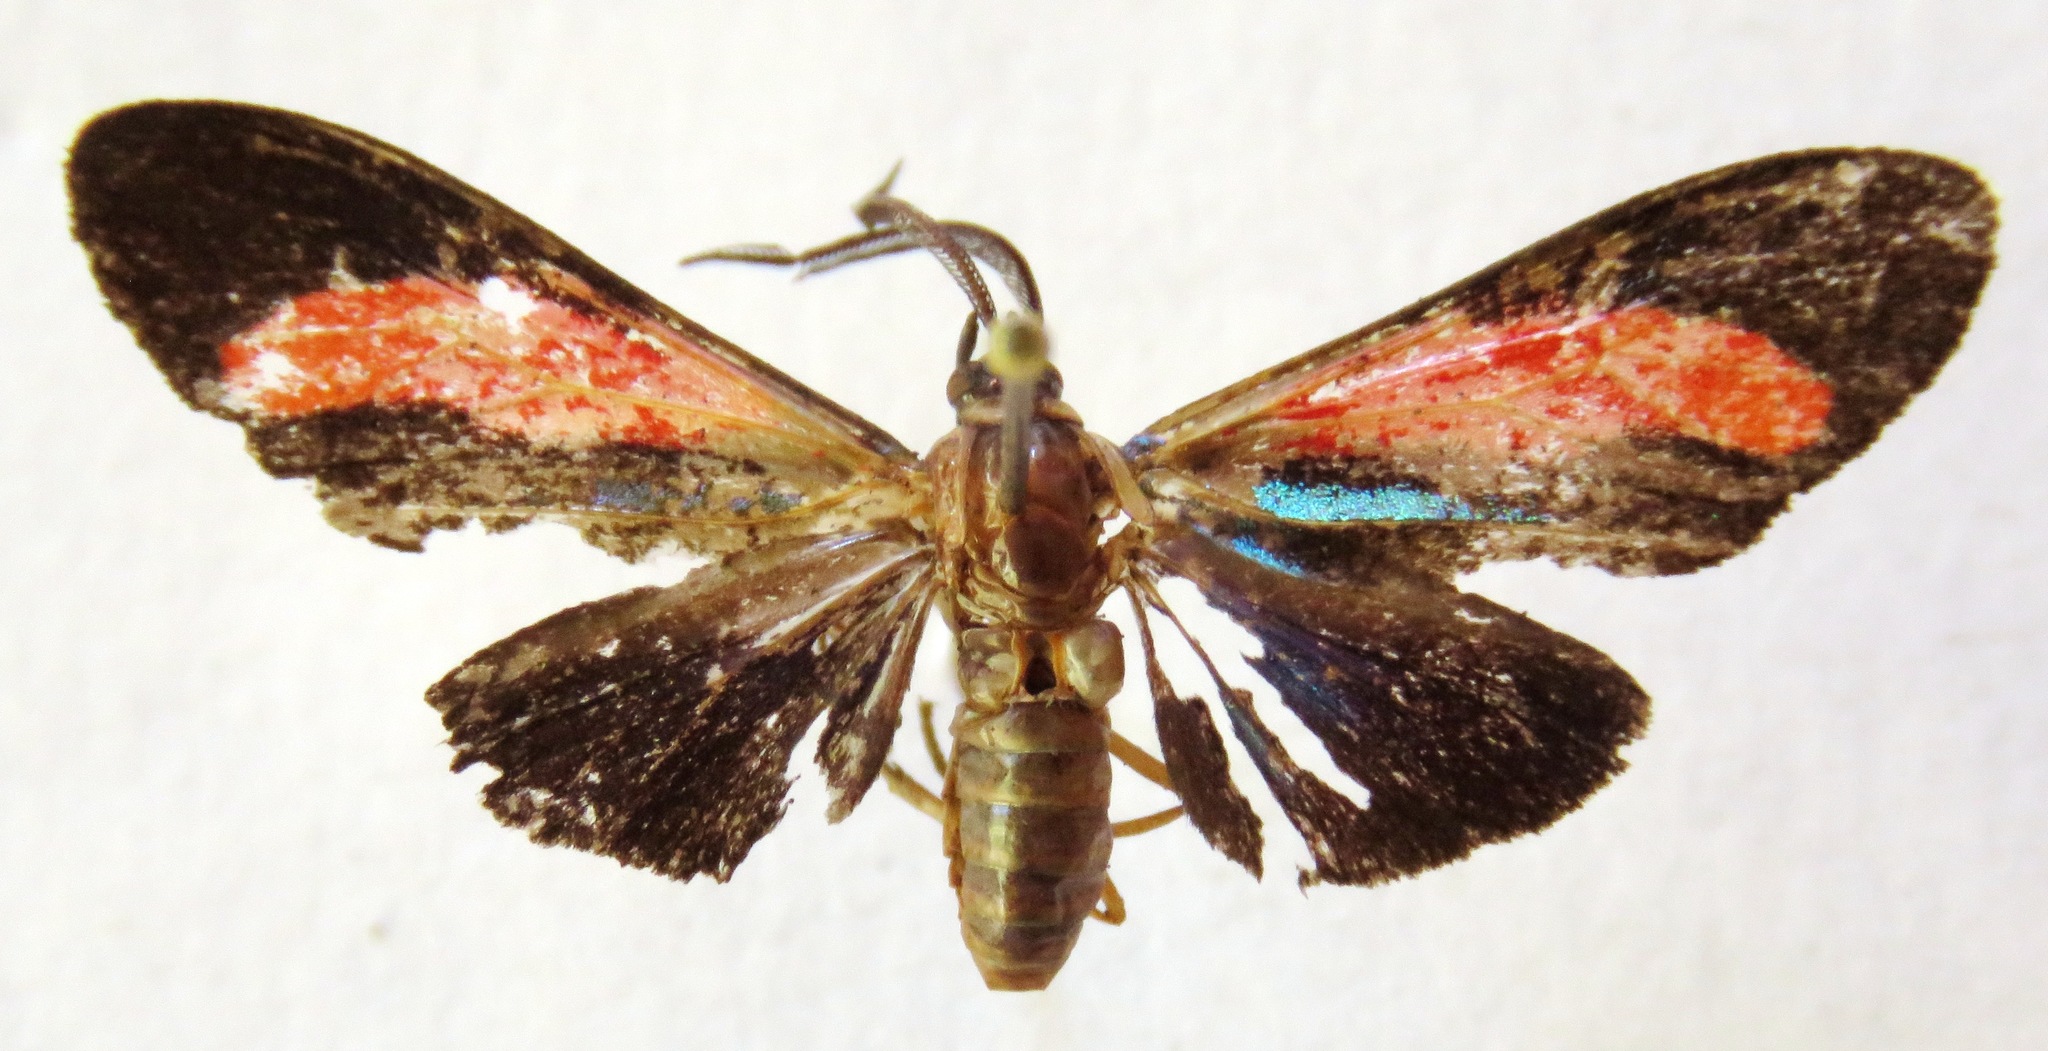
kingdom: Animalia
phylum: Arthropoda
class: Insecta
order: Lepidoptera
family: Erebidae
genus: Cyanopepla
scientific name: Cyanopepla bella
